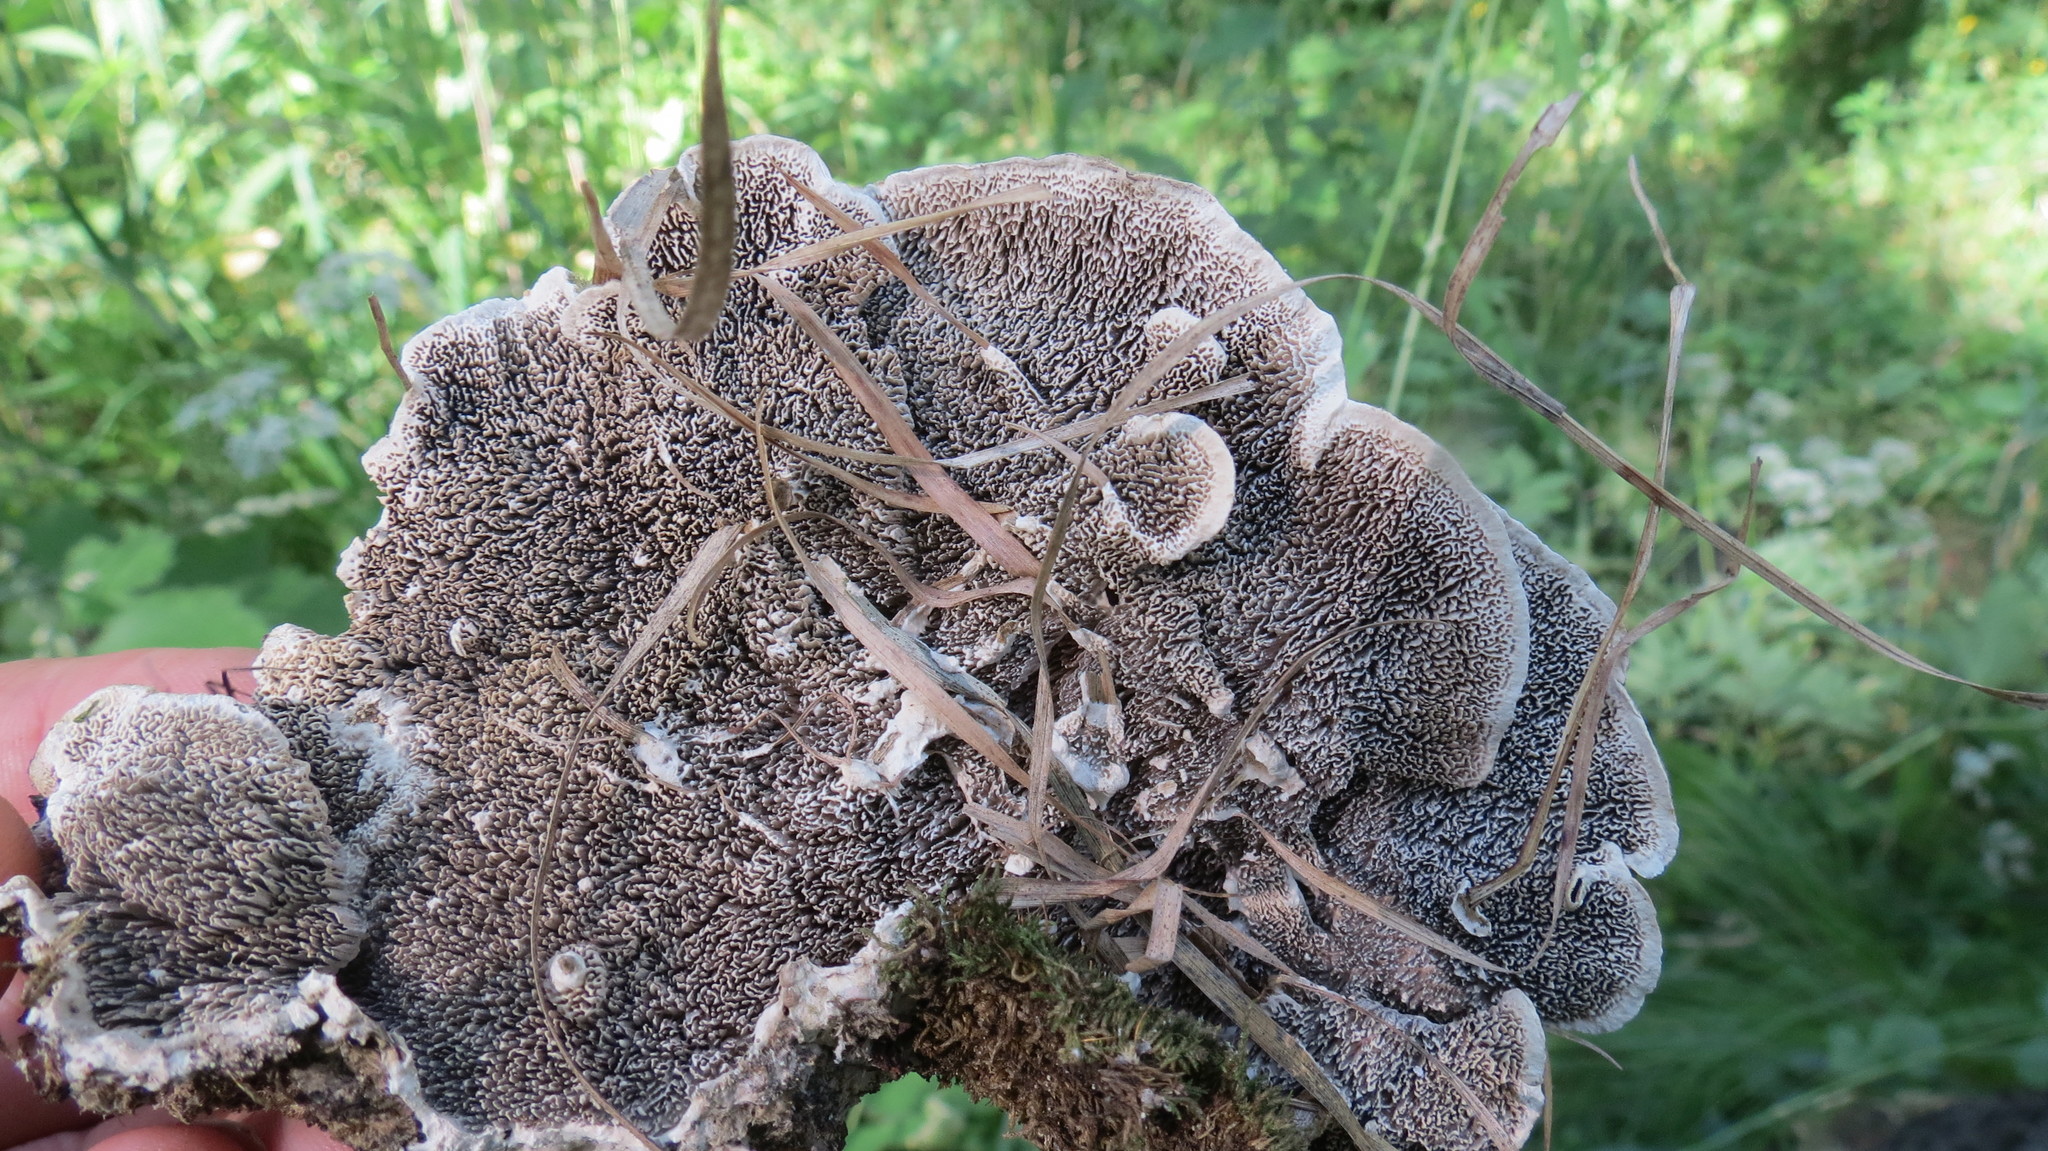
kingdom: Fungi
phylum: Basidiomycota
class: Agaricomycetes
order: Polyporales
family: Cerrenaceae
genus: Cerrena
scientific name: Cerrena unicolor
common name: Mossy maze polypore
